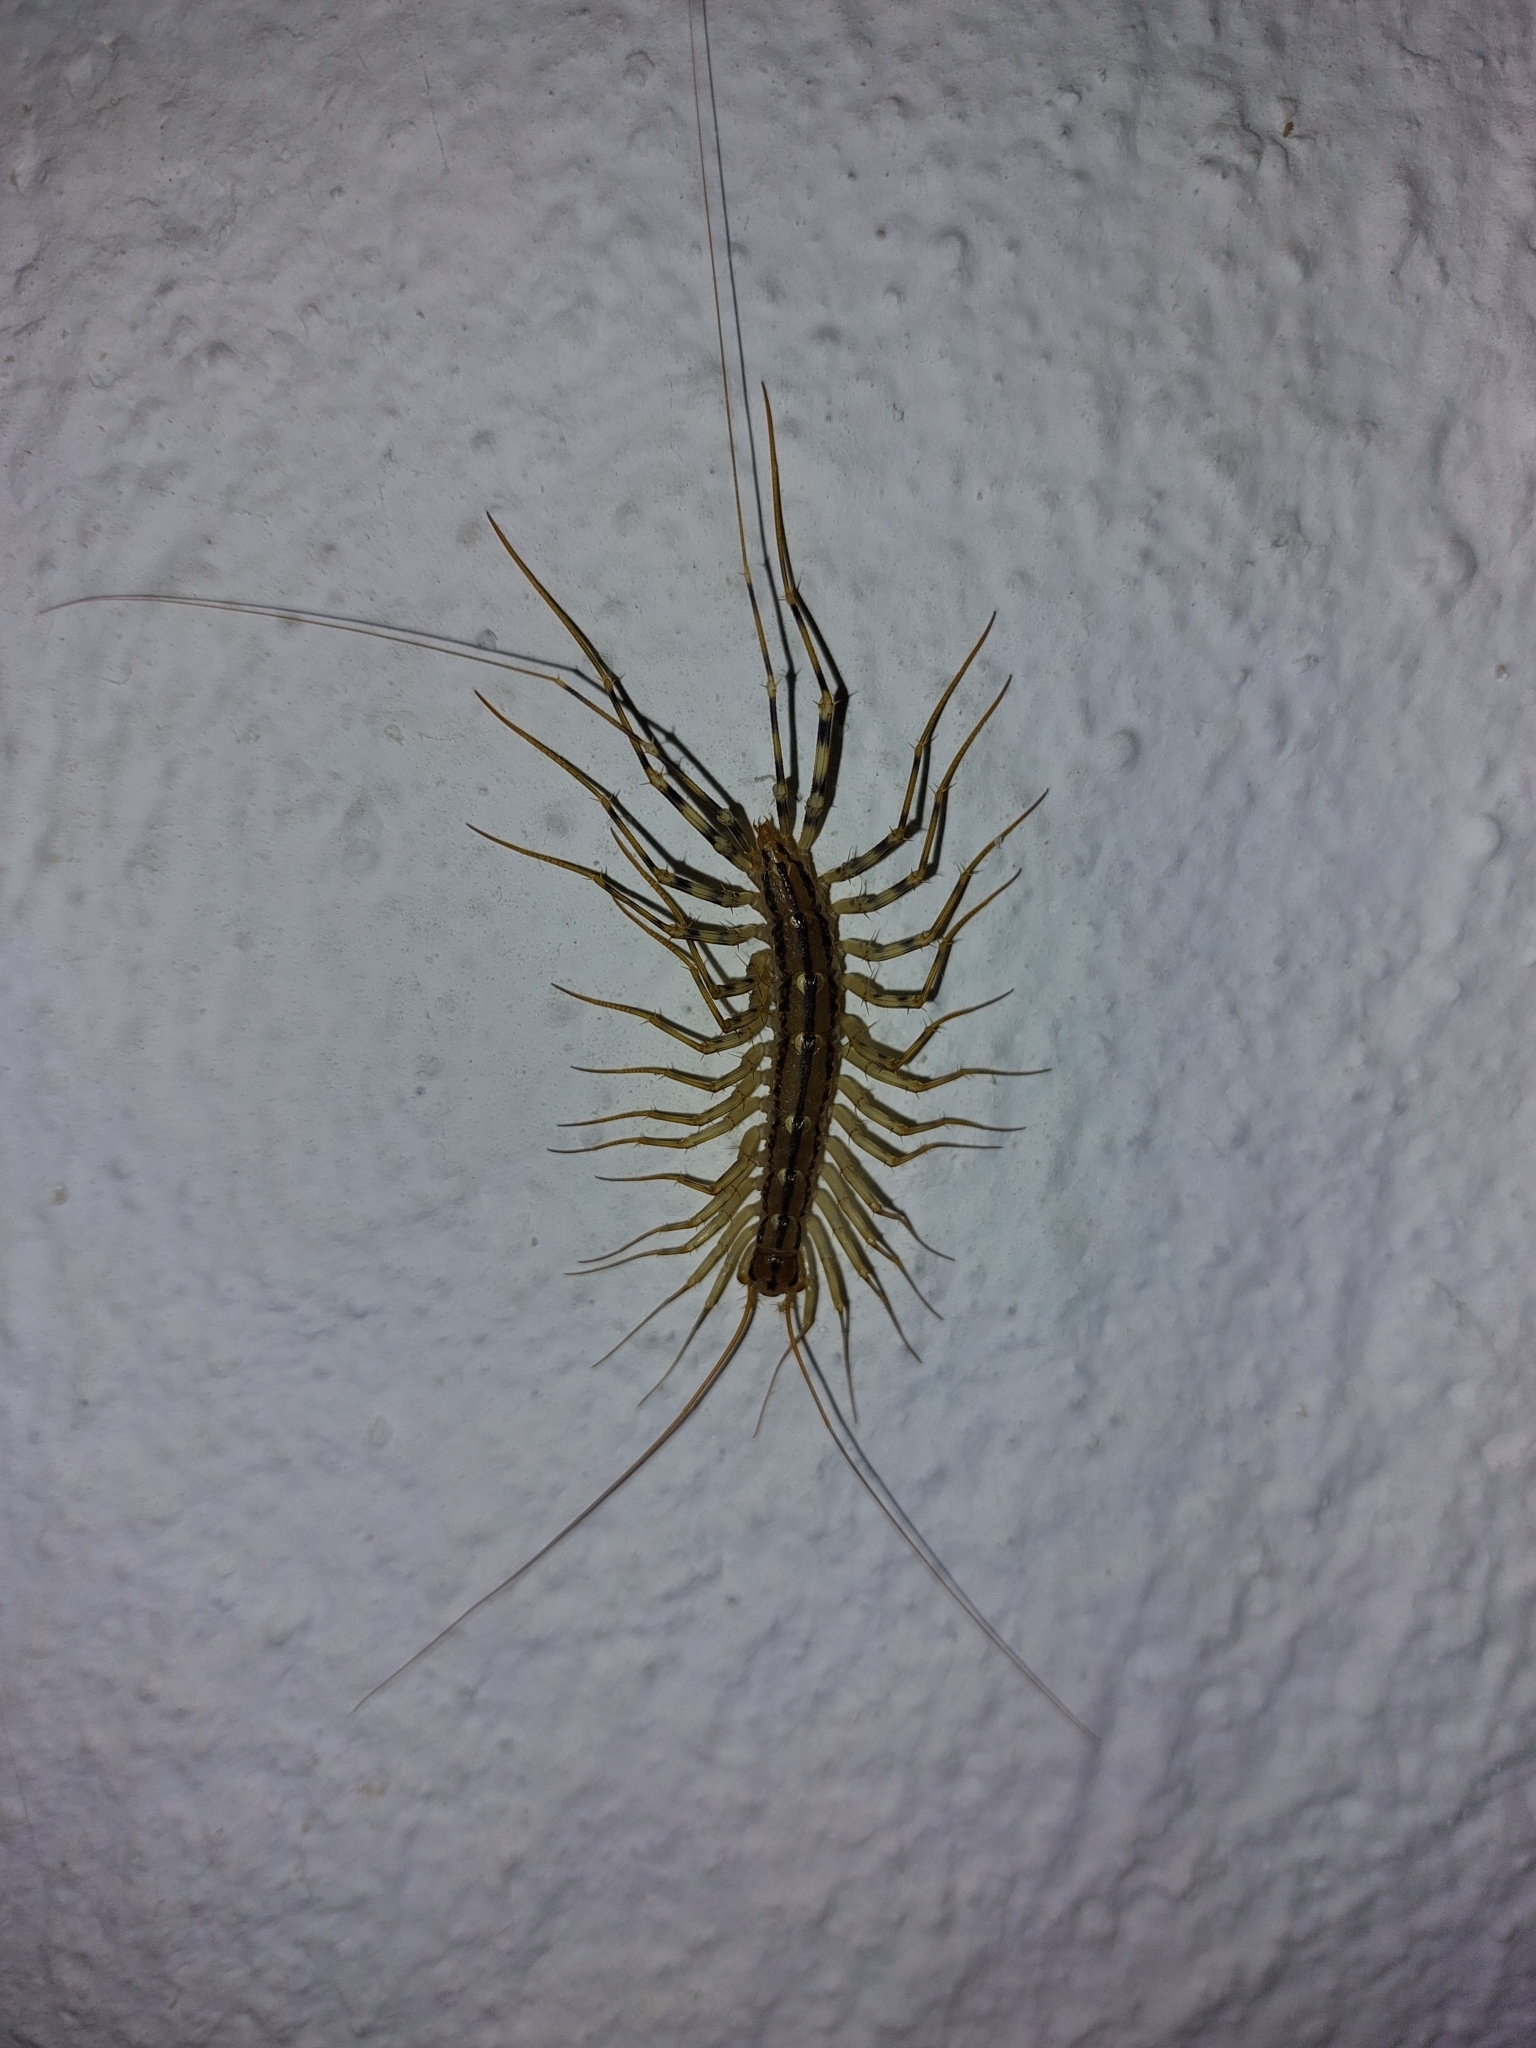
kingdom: Animalia
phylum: Arthropoda
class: Chilopoda
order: Scutigeromorpha
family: Scutigeridae
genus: Scutigera
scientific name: Scutigera coleoptrata
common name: House centipede
